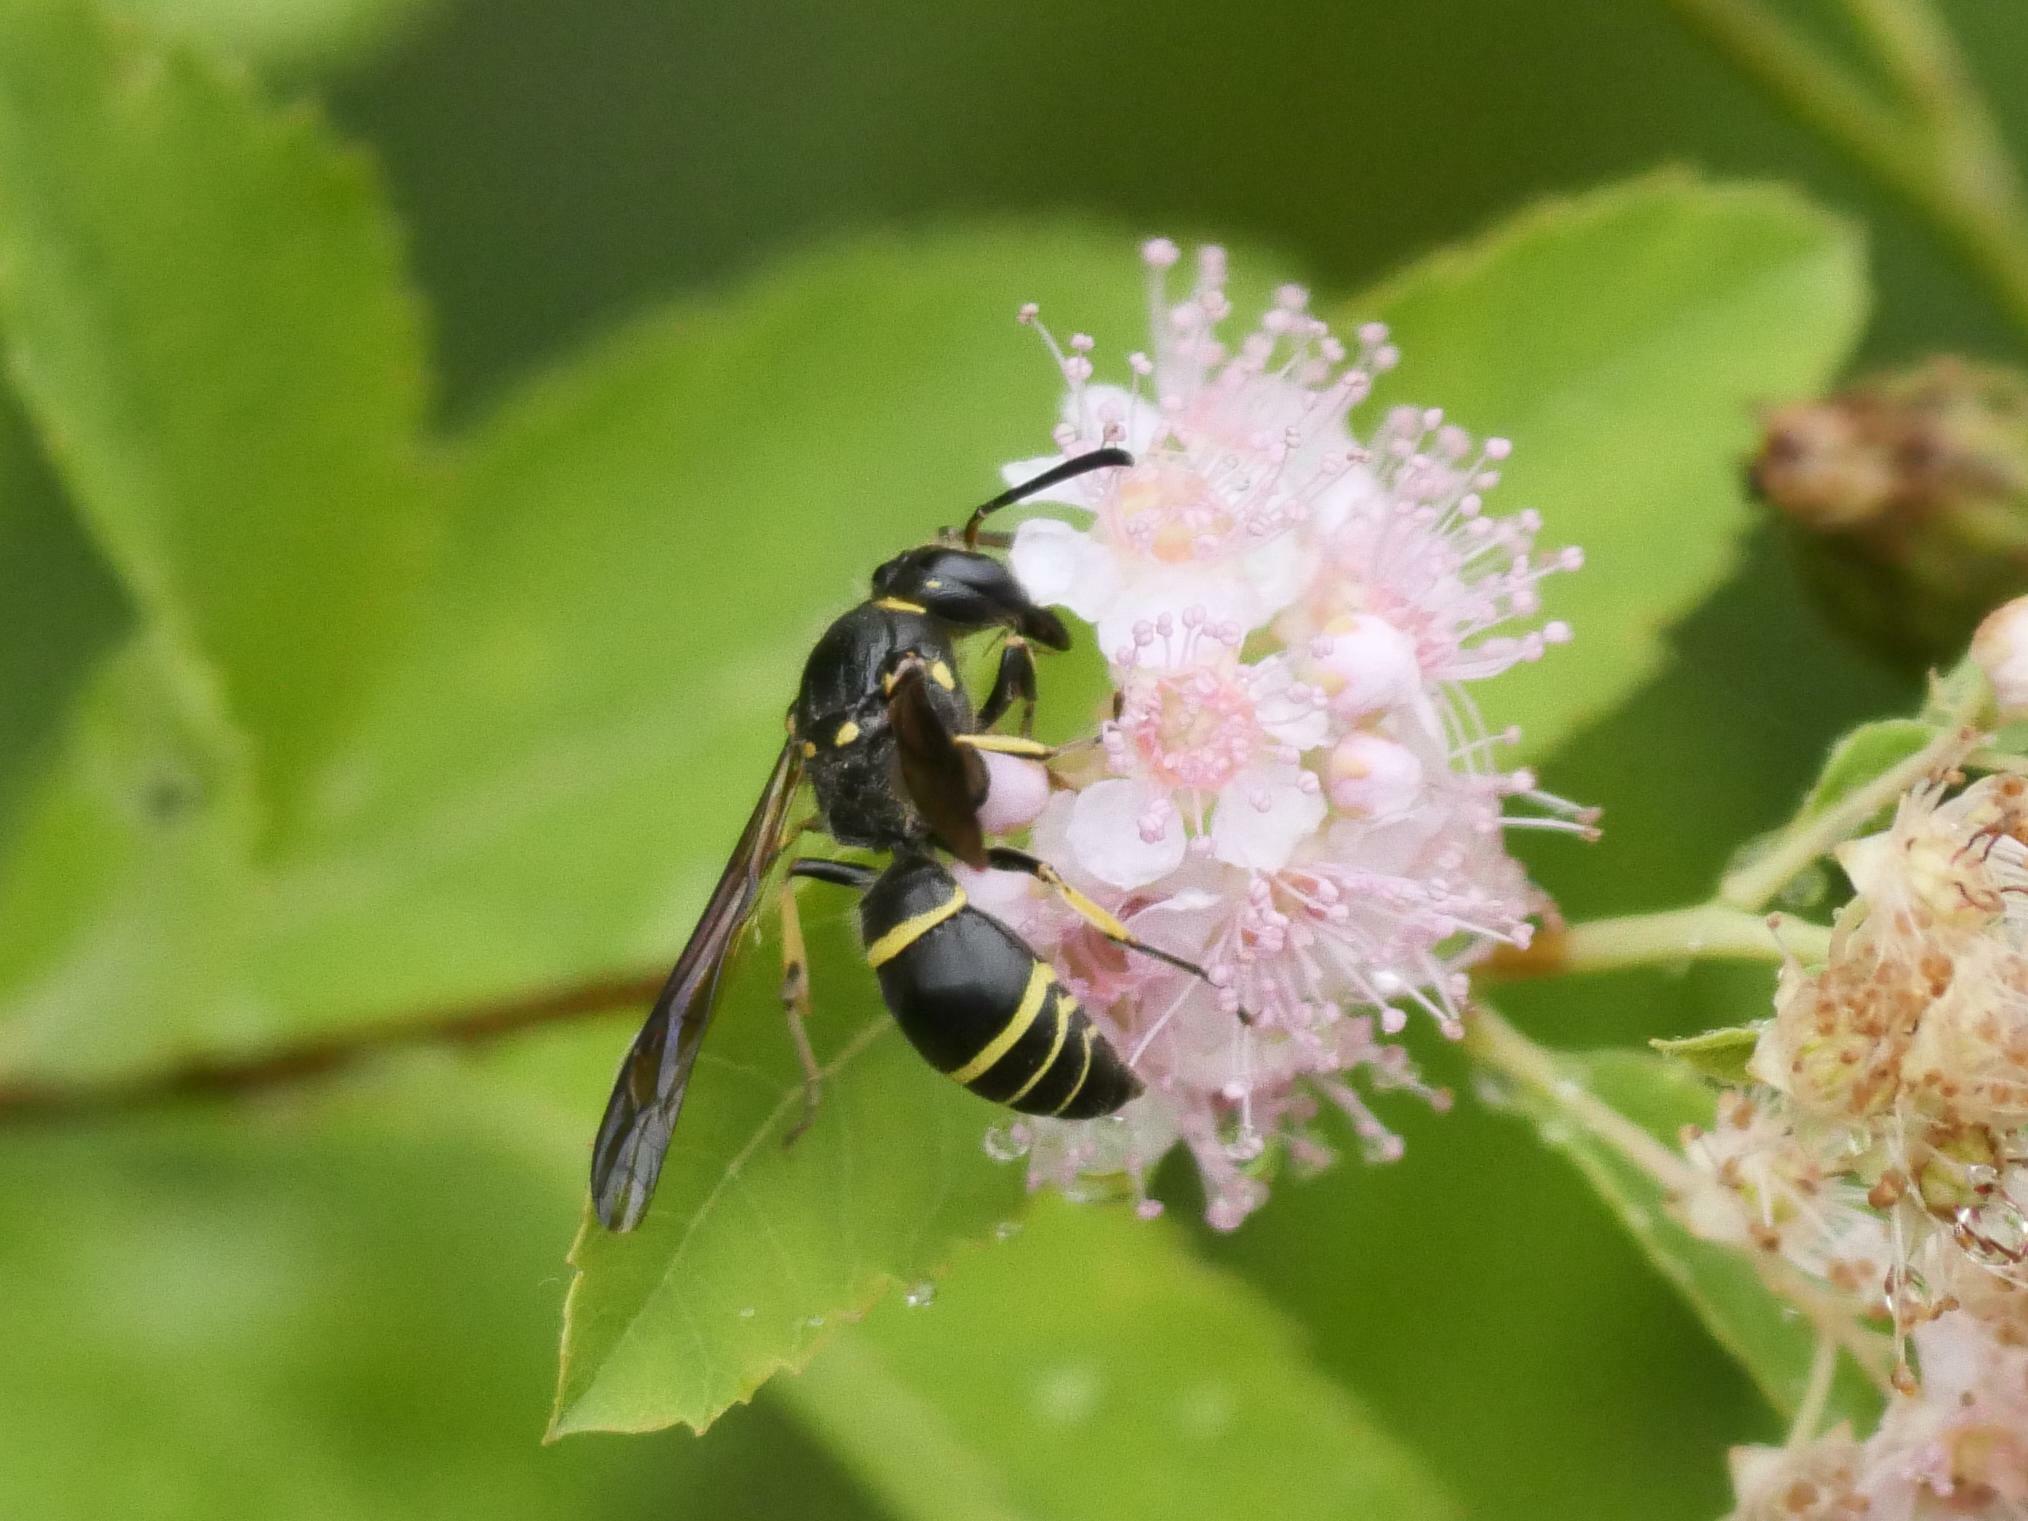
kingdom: Animalia
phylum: Arthropoda
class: Insecta
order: Hymenoptera
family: Vespidae
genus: Ancistrocerus
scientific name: Ancistrocerus
